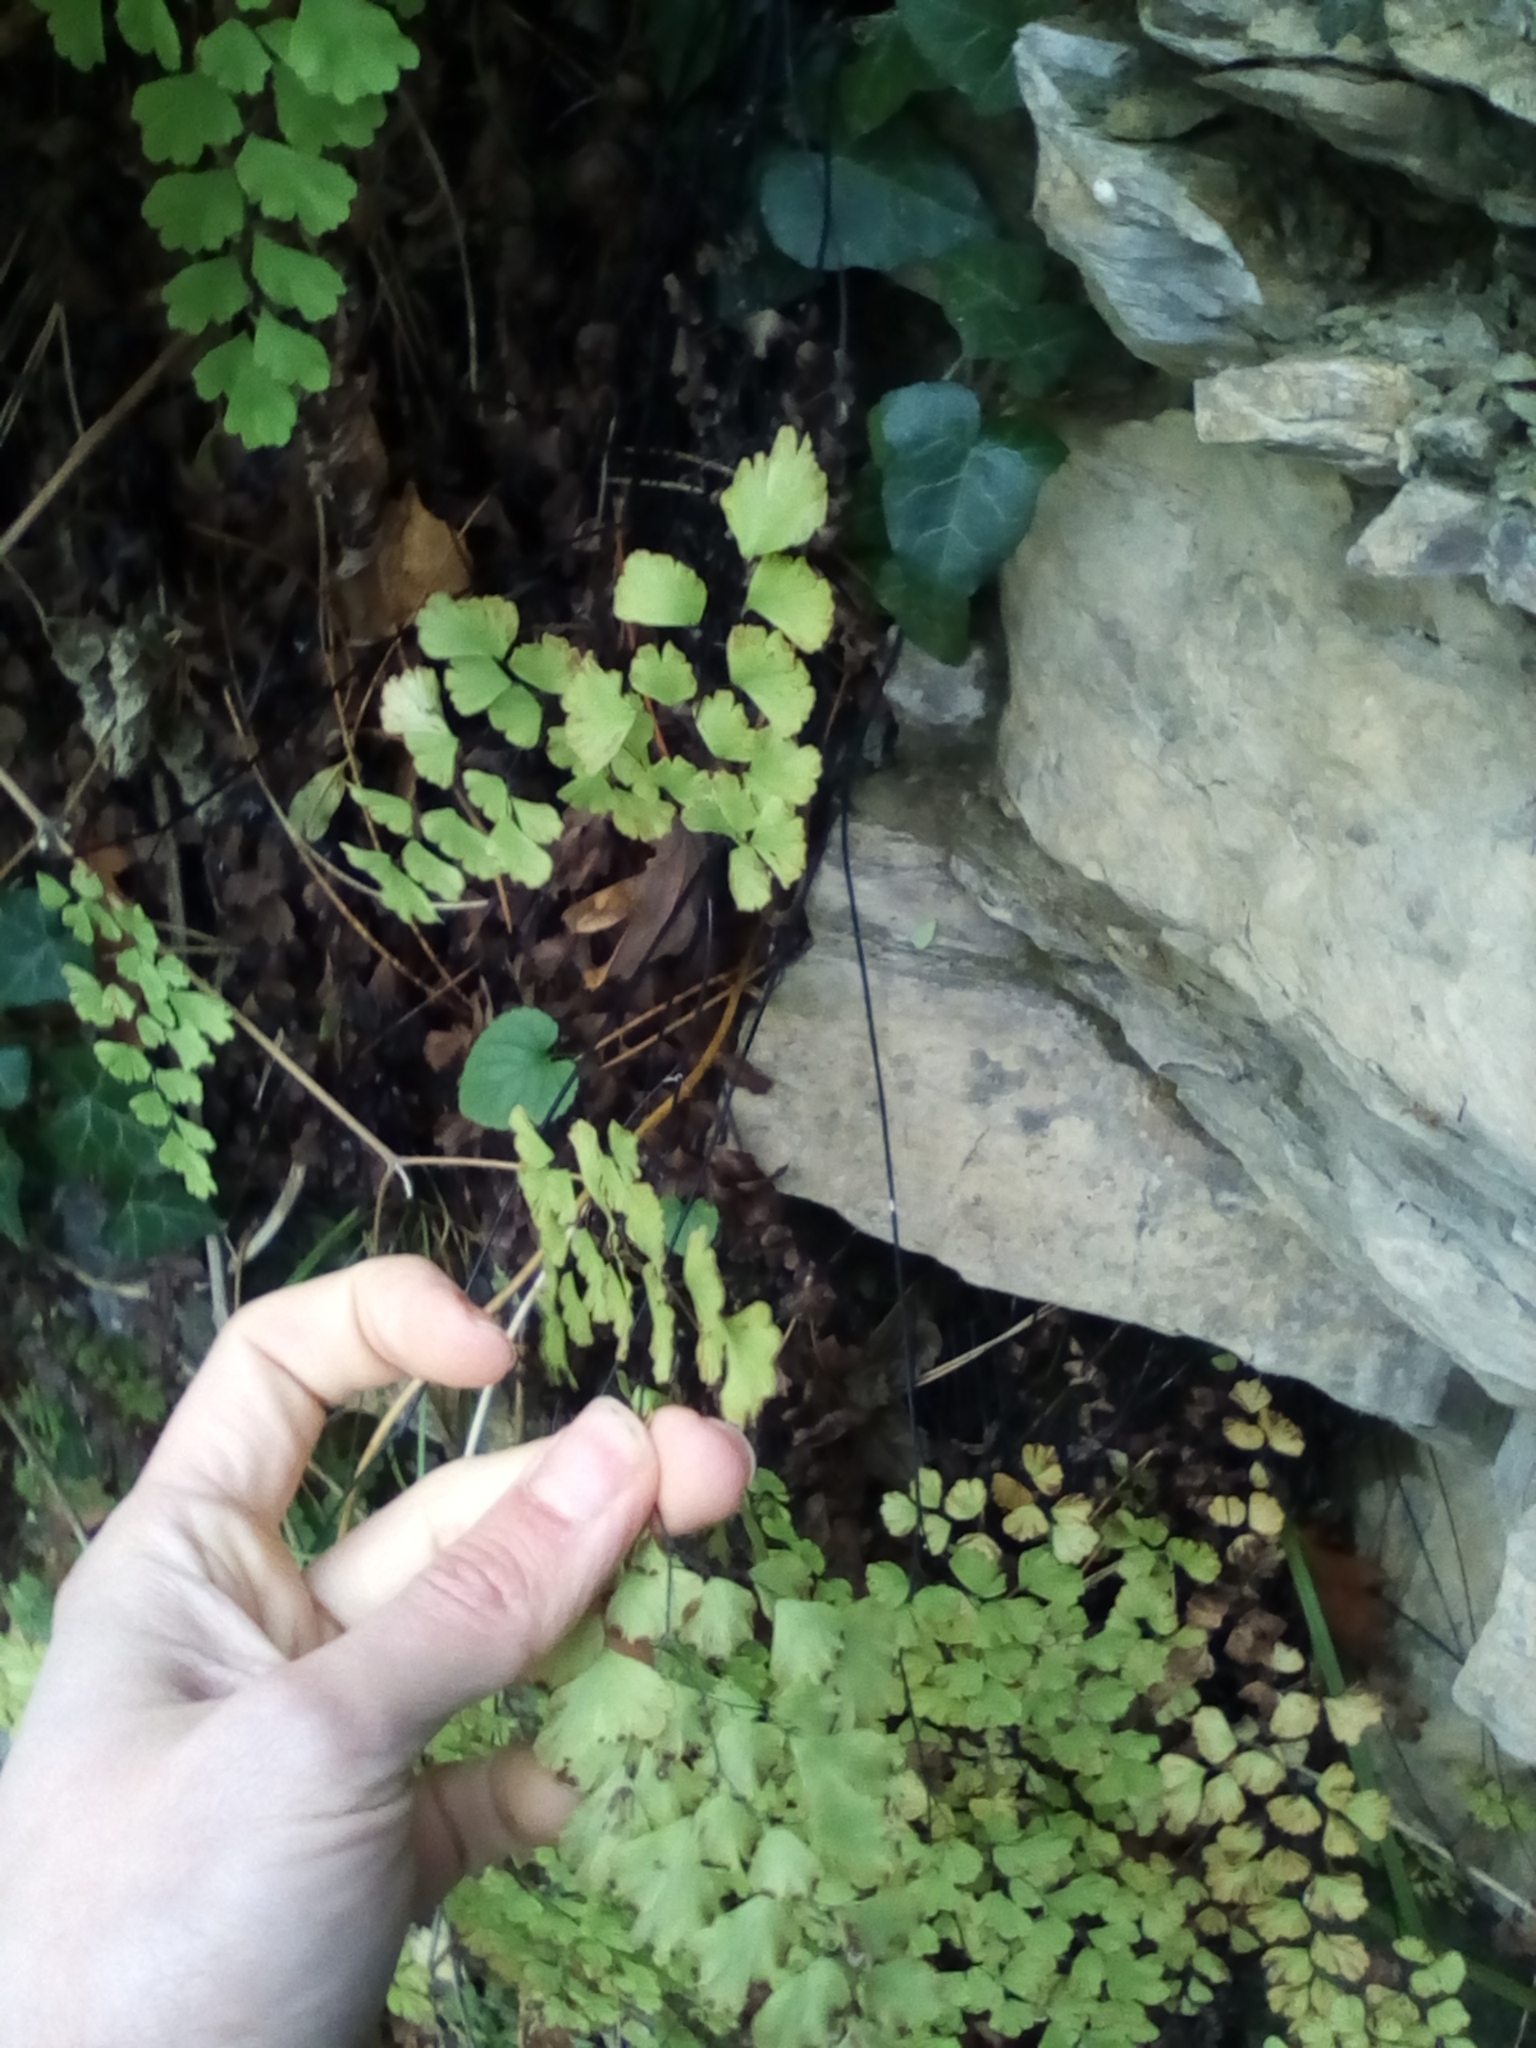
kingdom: Plantae
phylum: Tracheophyta
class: Polypodiopsida
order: Polypodiales
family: Pteridaceae
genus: Adiantum
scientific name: Adiantum capillus-veneris
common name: Maidenhair fern
